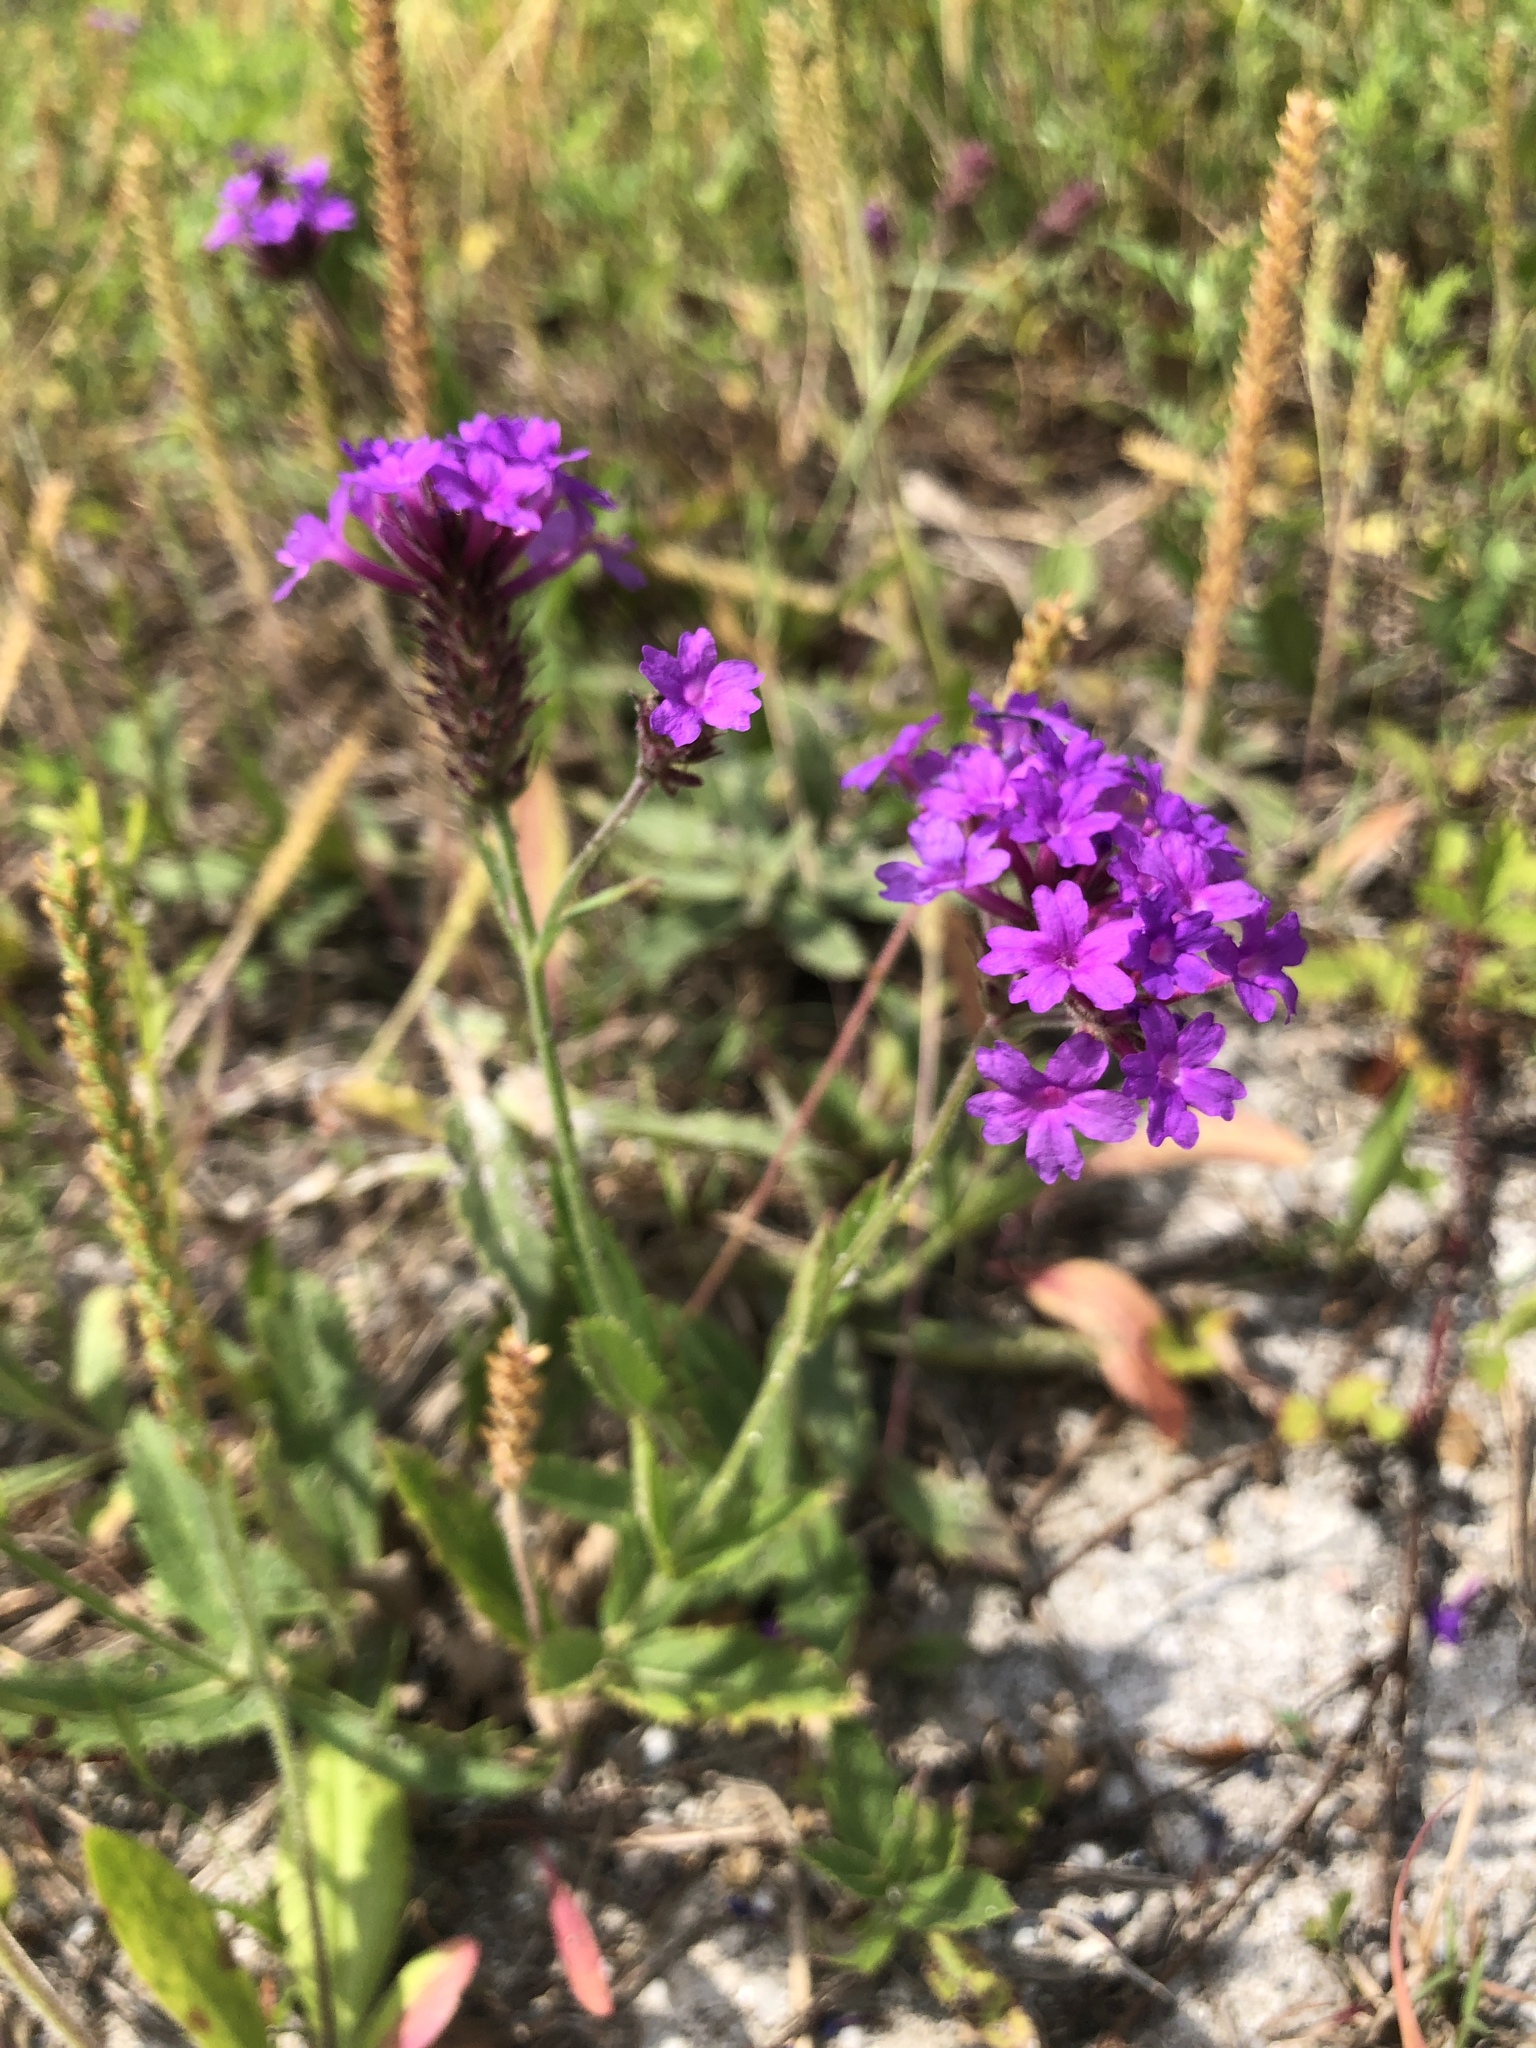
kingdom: Plantae
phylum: Tracheophyta
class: Magnoliopsida
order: Lamiales
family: Verbenaceae
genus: Verbena
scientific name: Verbena rigida
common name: Slender vervain
